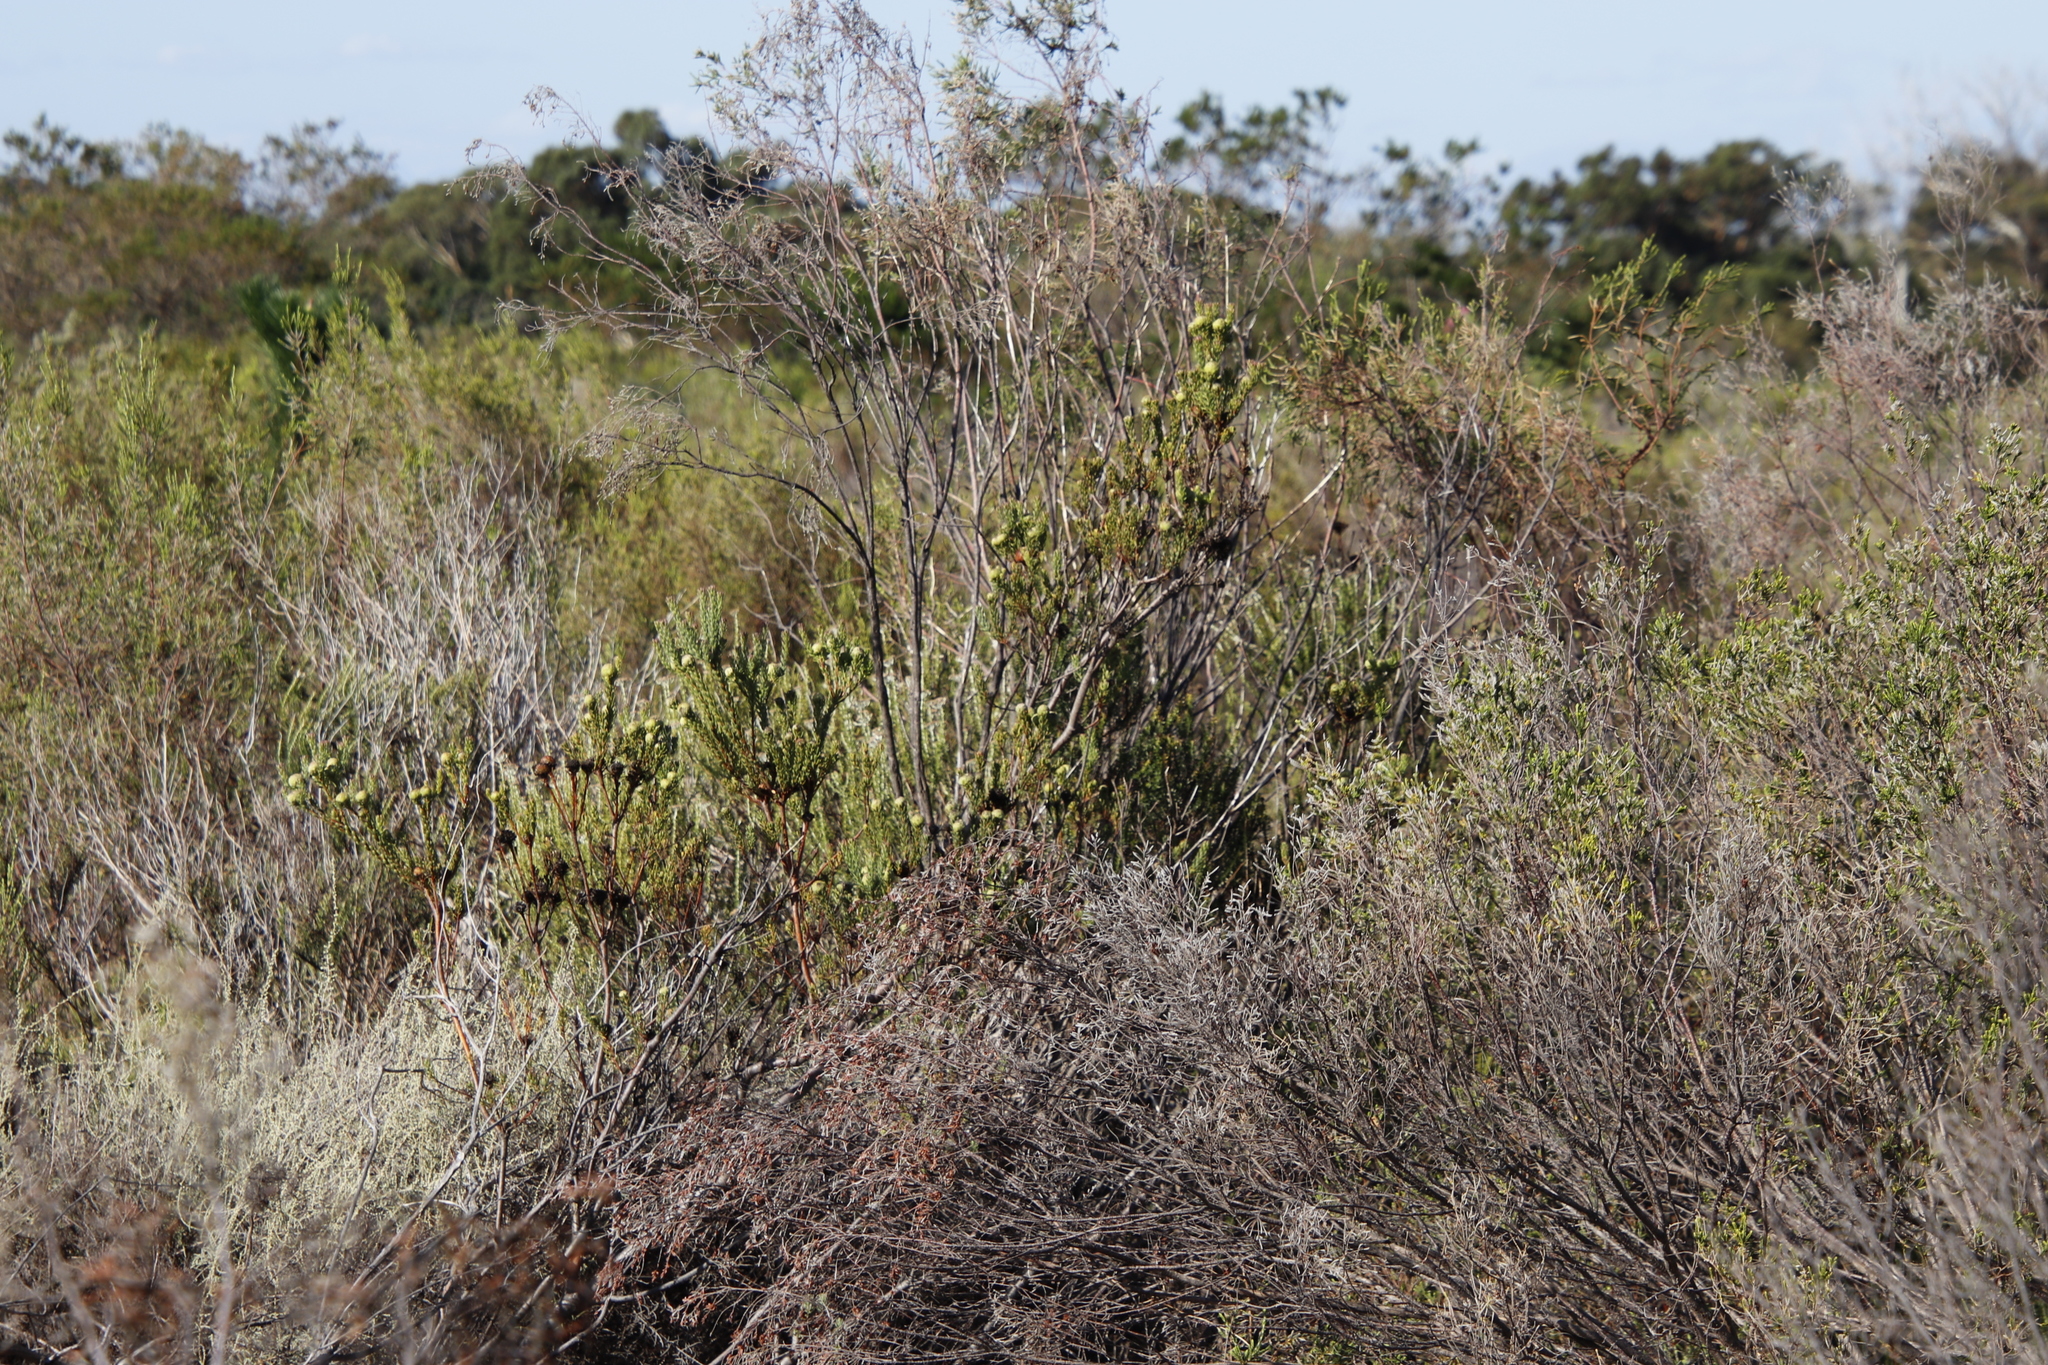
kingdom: Plantae
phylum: Tracheophyta
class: Magnoliopsida
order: Proteales
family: Proteaceae
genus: Leucadendron
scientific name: Leucadendron levisanus
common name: Cape flats conebush
